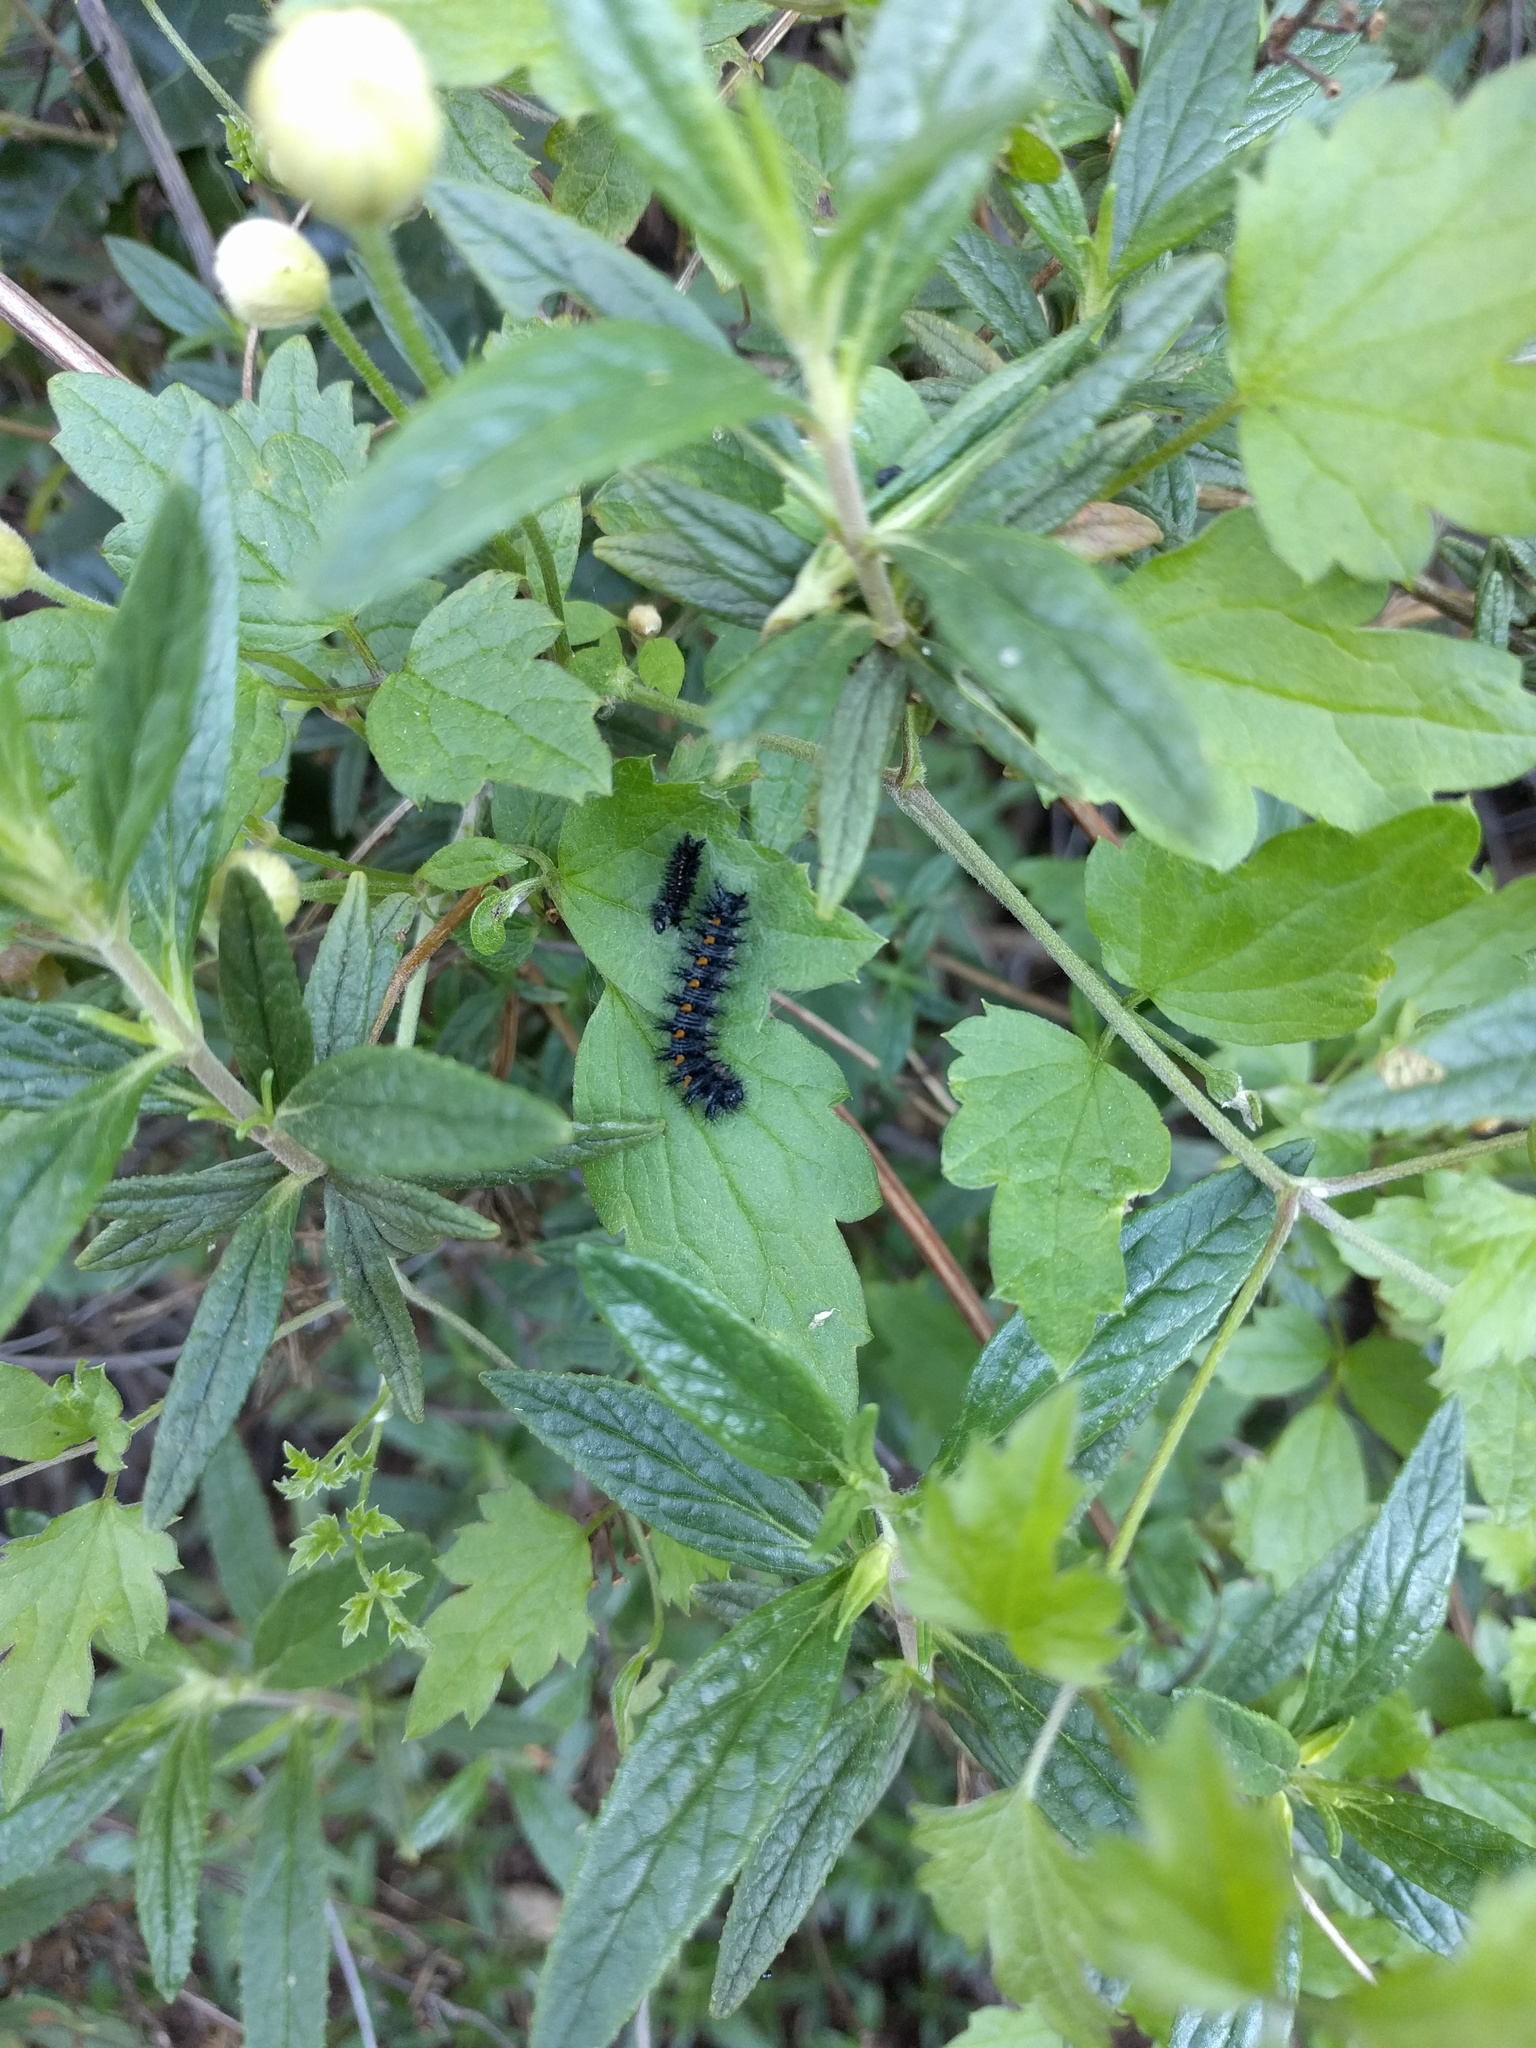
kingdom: Animalia
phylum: Arthropoda
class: Insecta
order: Lepidoptera
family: Nymphalidae
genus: Occidryas
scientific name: Occidryas chalcedona
